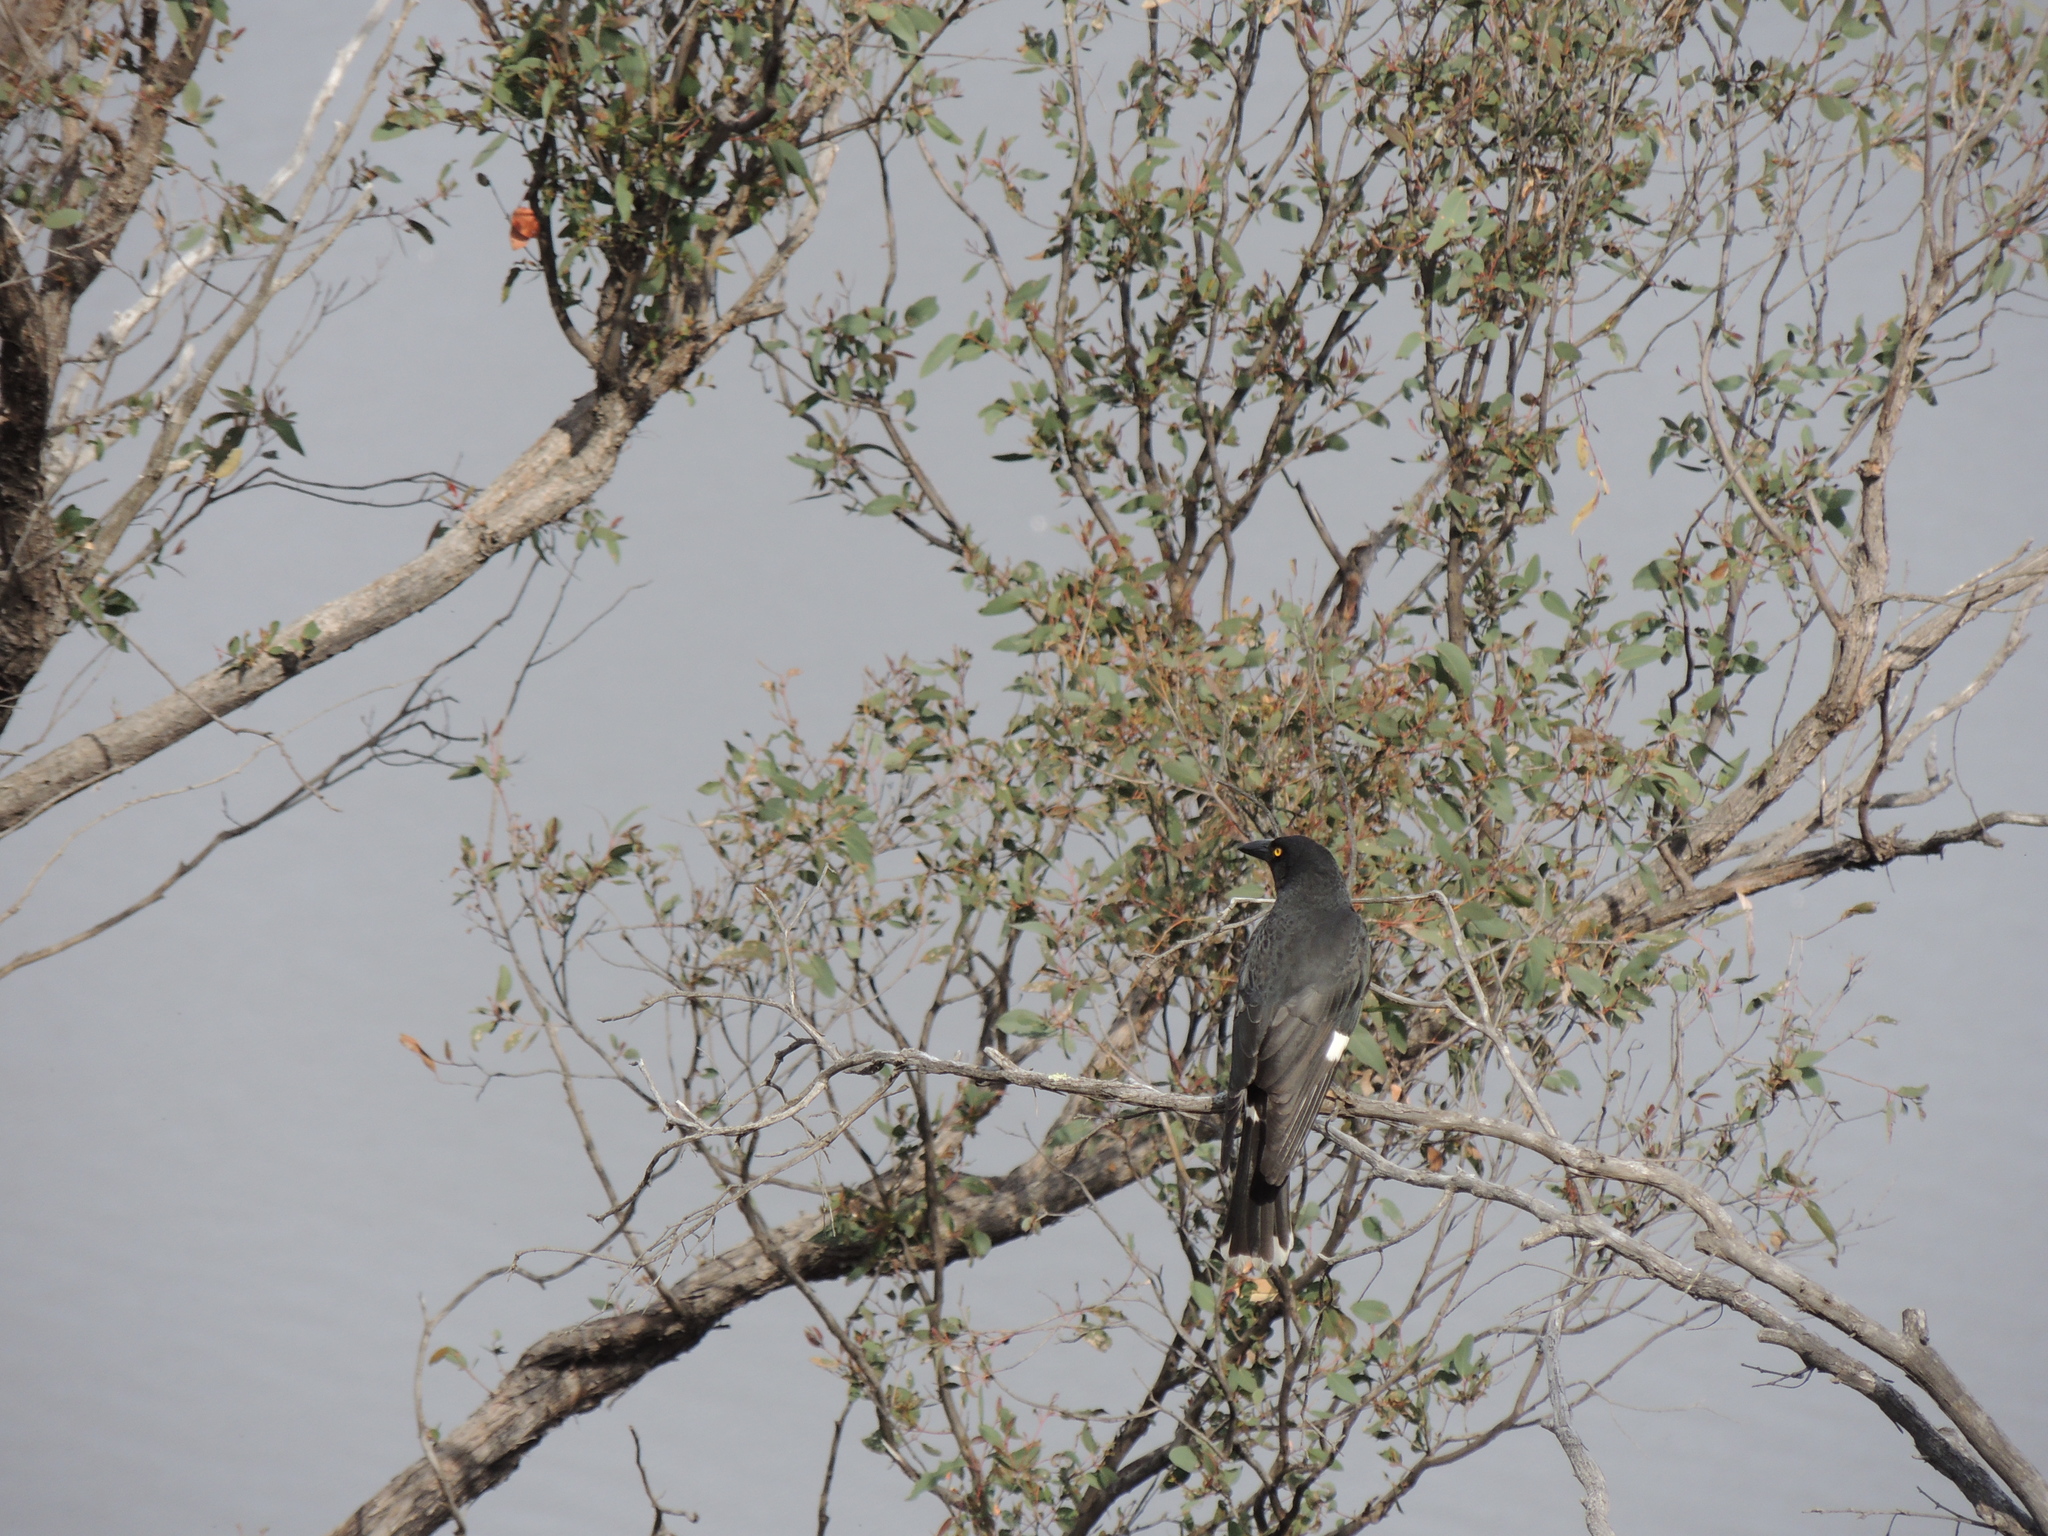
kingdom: Animalia
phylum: Chordata
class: Aves
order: Passeriformes
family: Cracticidae
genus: Strepera
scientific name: Strepera graculina
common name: Pied currawong
